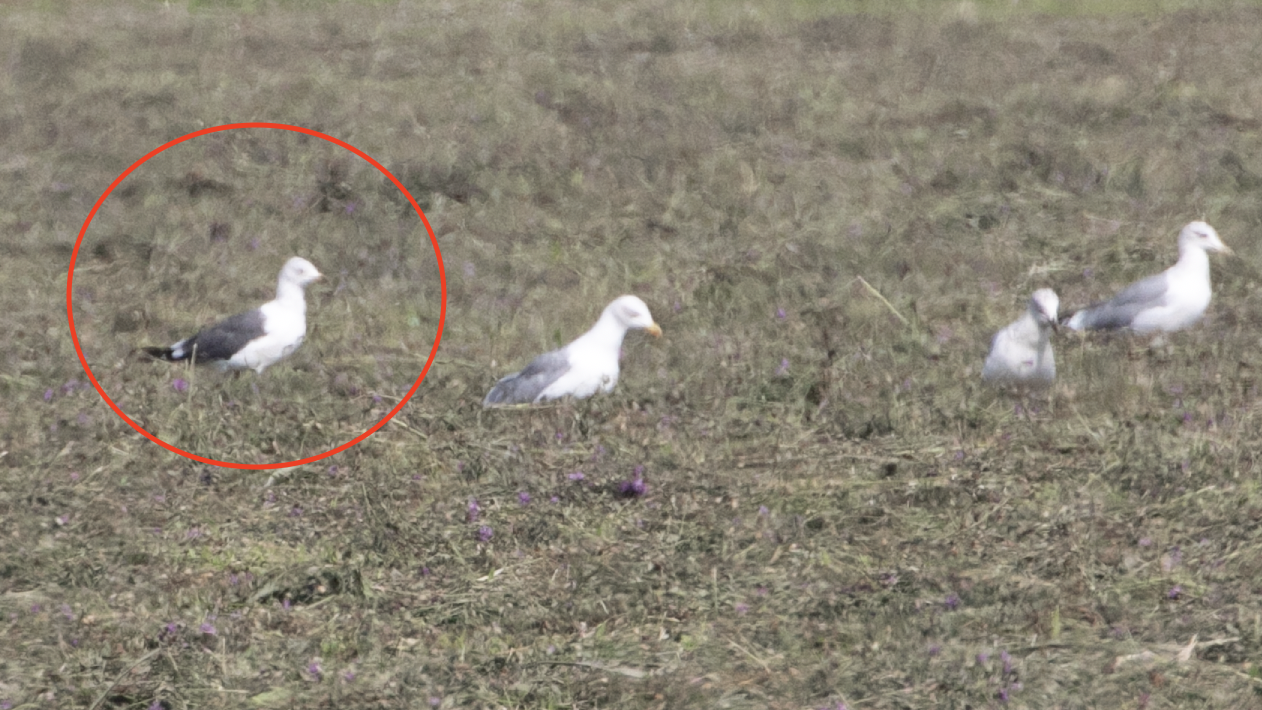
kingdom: Animalia
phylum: Chordata
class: Aves
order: Charadriiformes
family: Laridae
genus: Larus
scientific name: Larus fuscus
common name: Lesser black-backed gull
